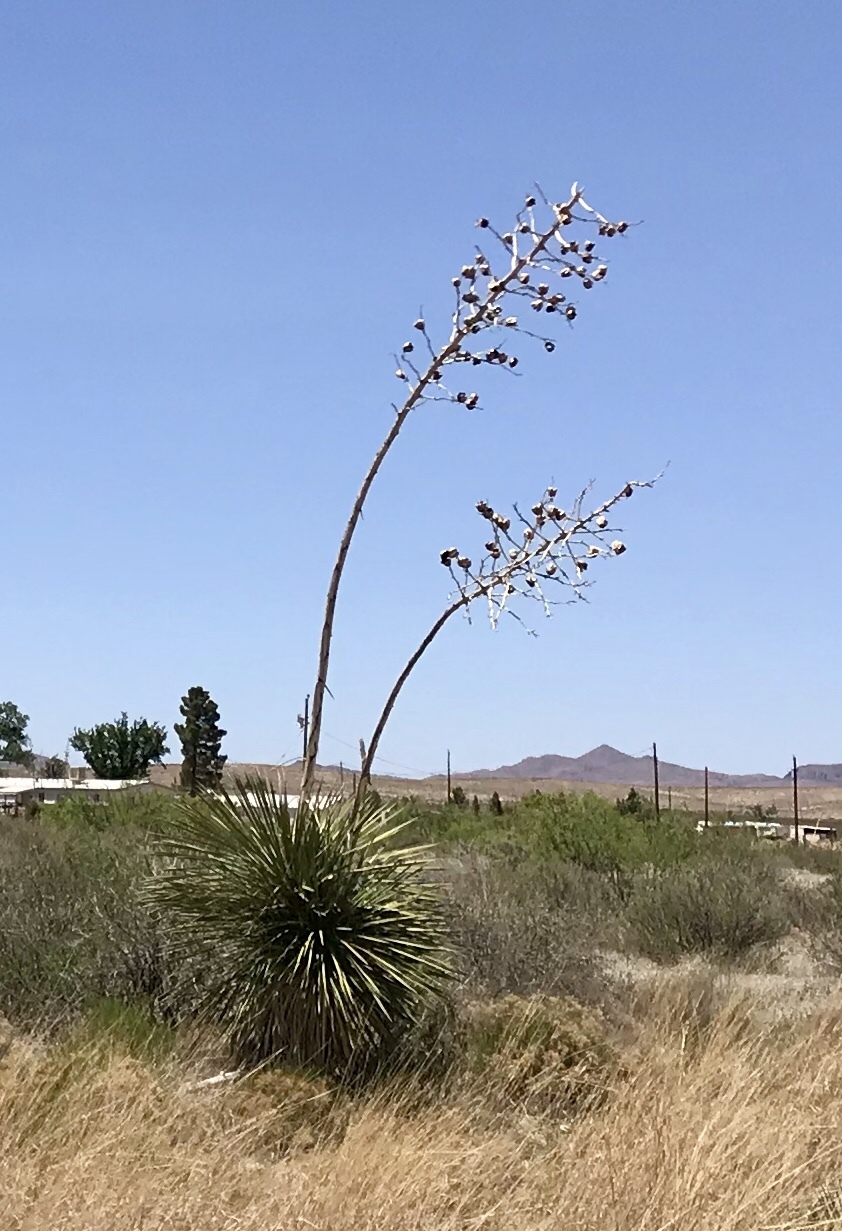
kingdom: Plantae
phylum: Tracheophyta
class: Liliopsida
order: Asparagales
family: Asparagaceae
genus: Yucca
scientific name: Yucca elata
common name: Palmella
